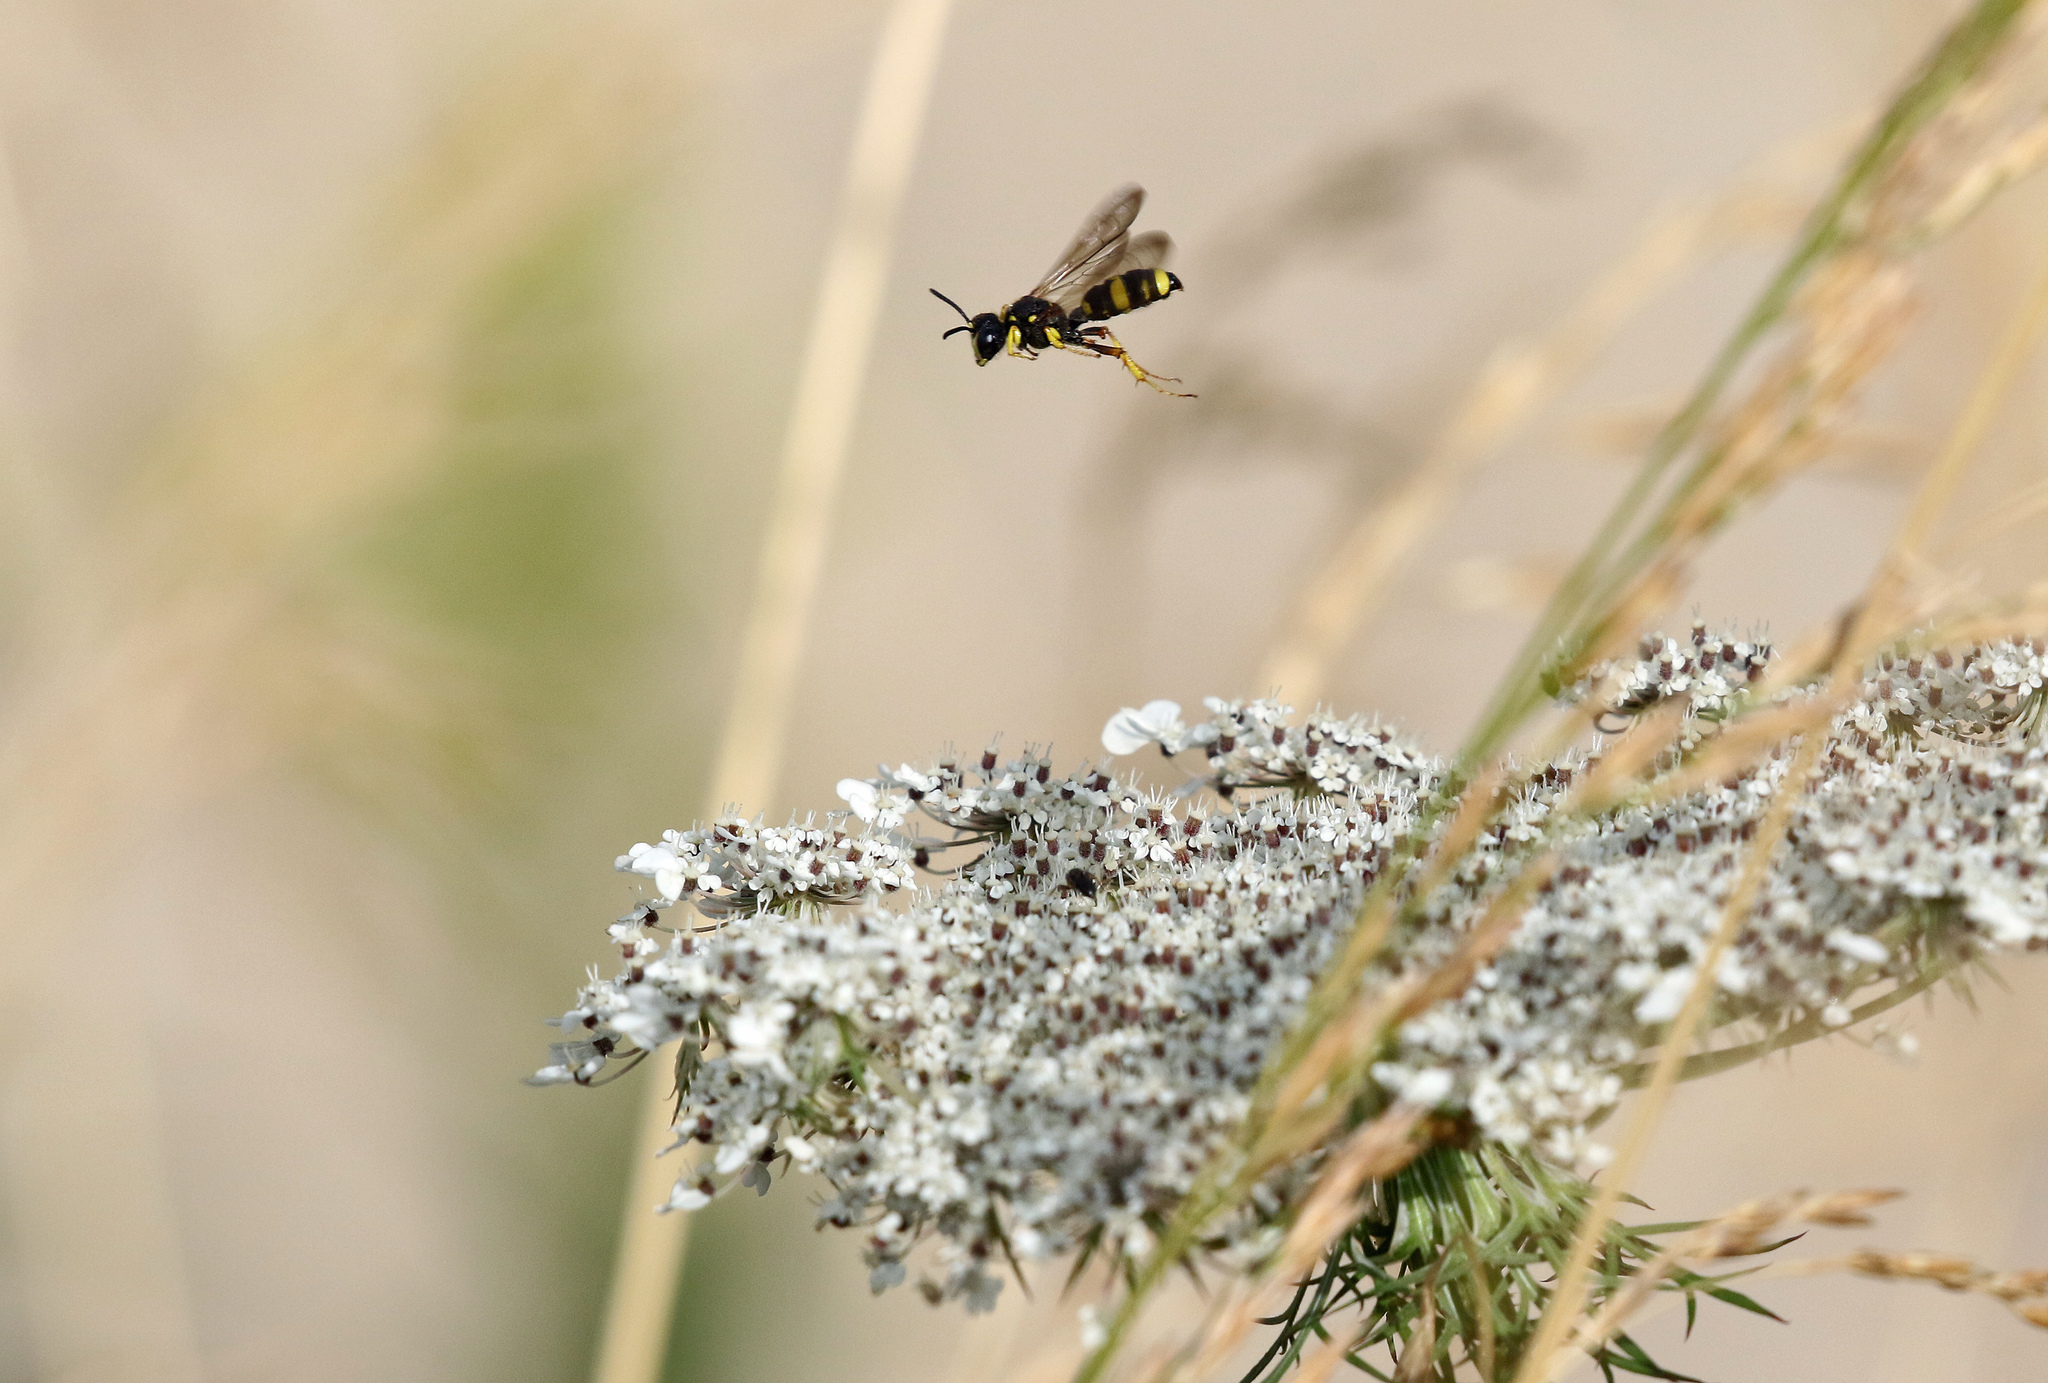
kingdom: Animalia
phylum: Arthropoda
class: Insecta
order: Hymenoptera
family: Crabronidae
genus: Cerceris
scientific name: Cerceris rybyensis
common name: Ornate tailed digger wasp
